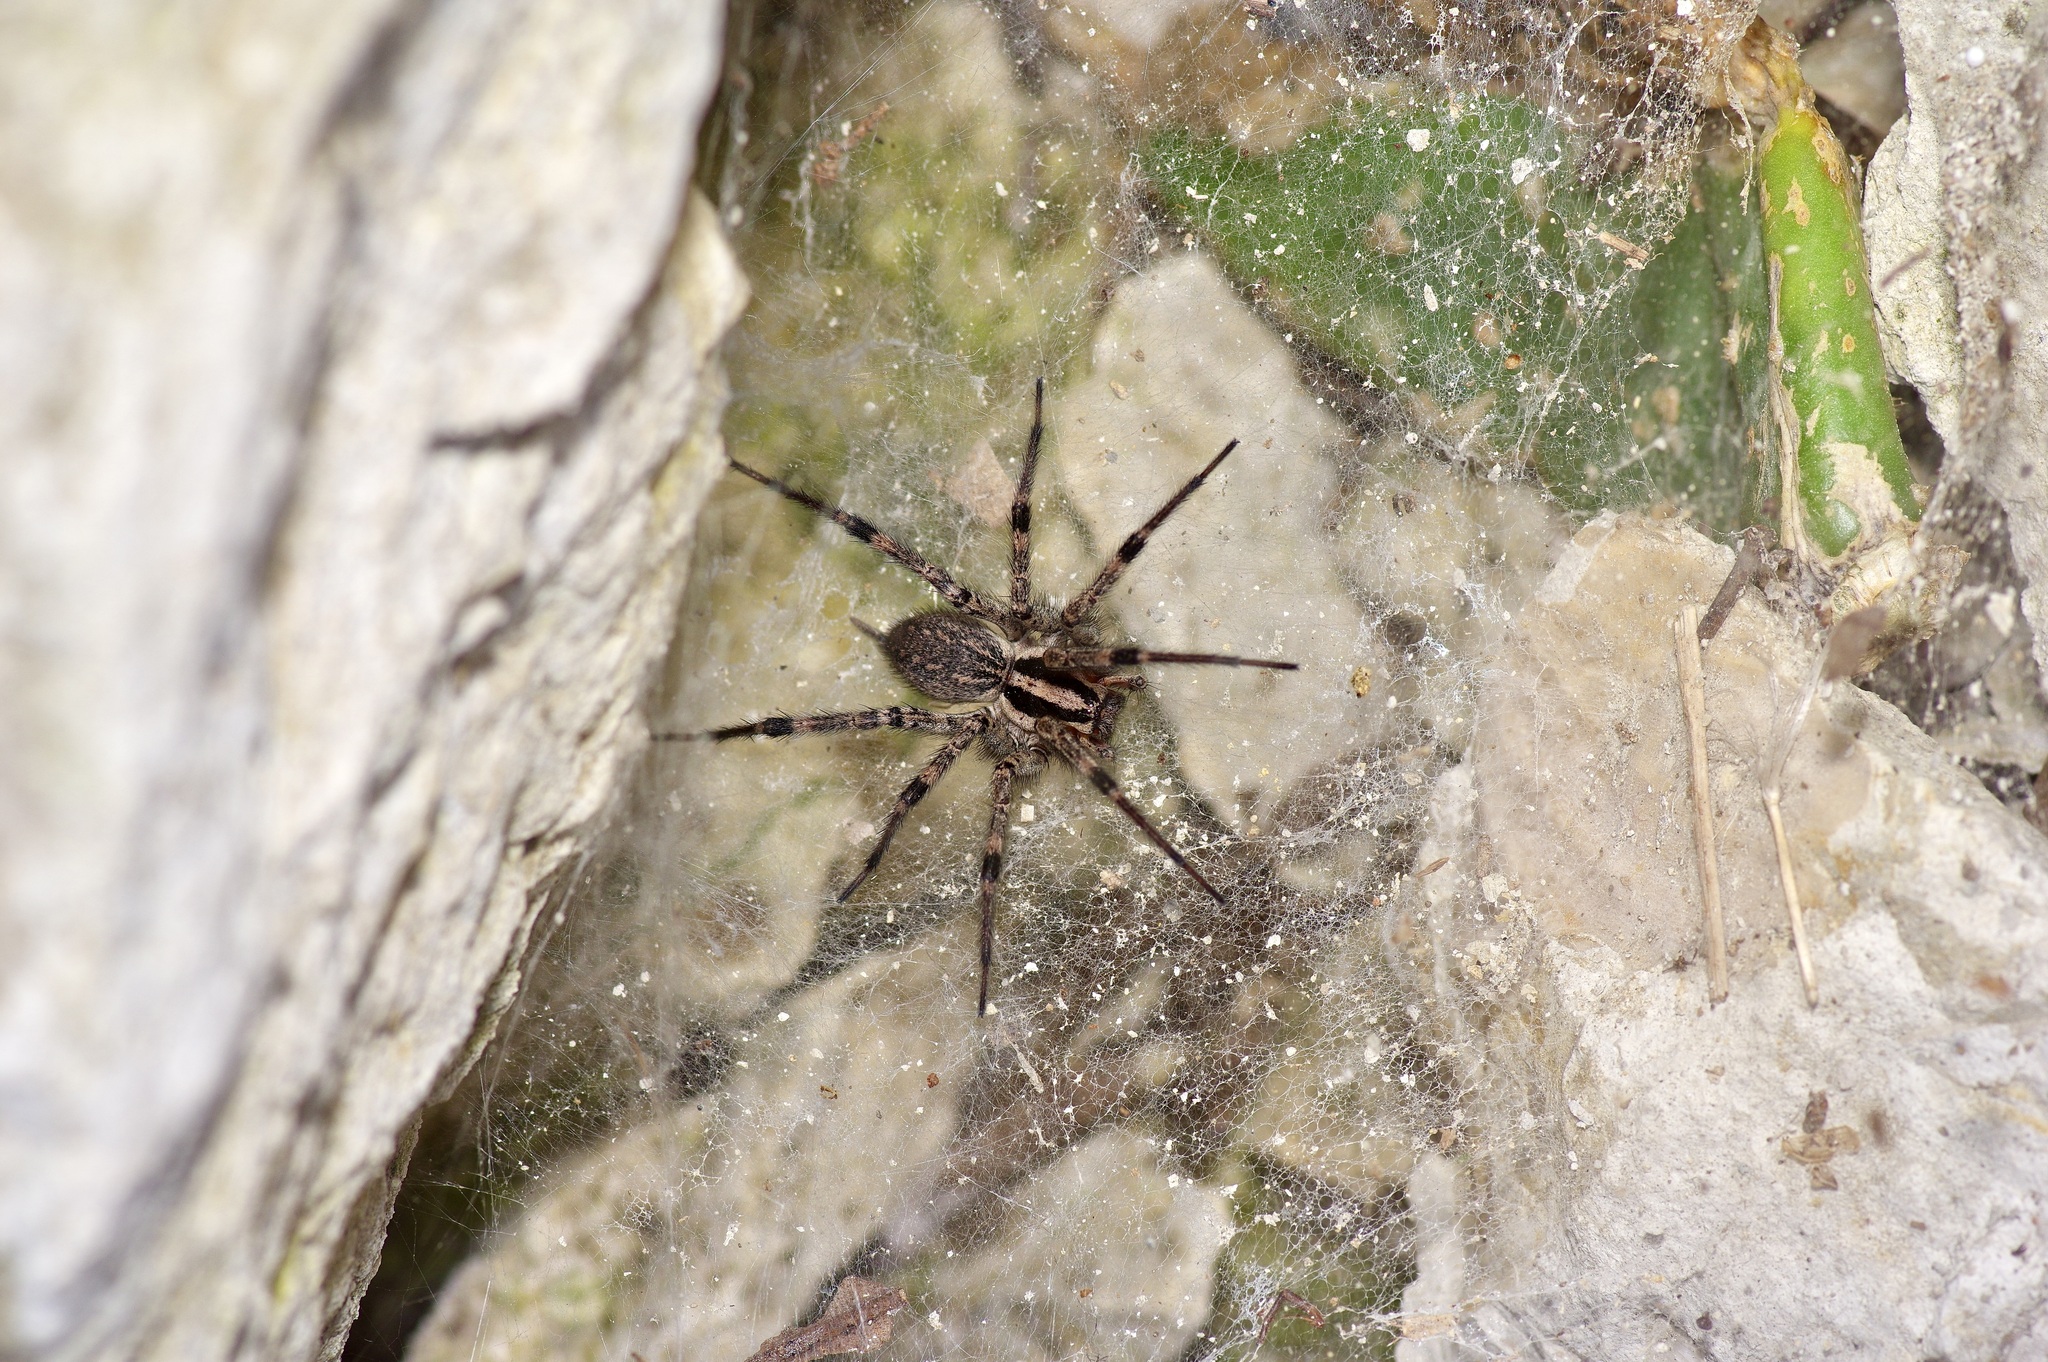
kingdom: Animalia
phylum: Arthropoda
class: Arachnida
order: Araneae
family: Agelenidae
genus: Agelenopsis
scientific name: Agelenopsis
